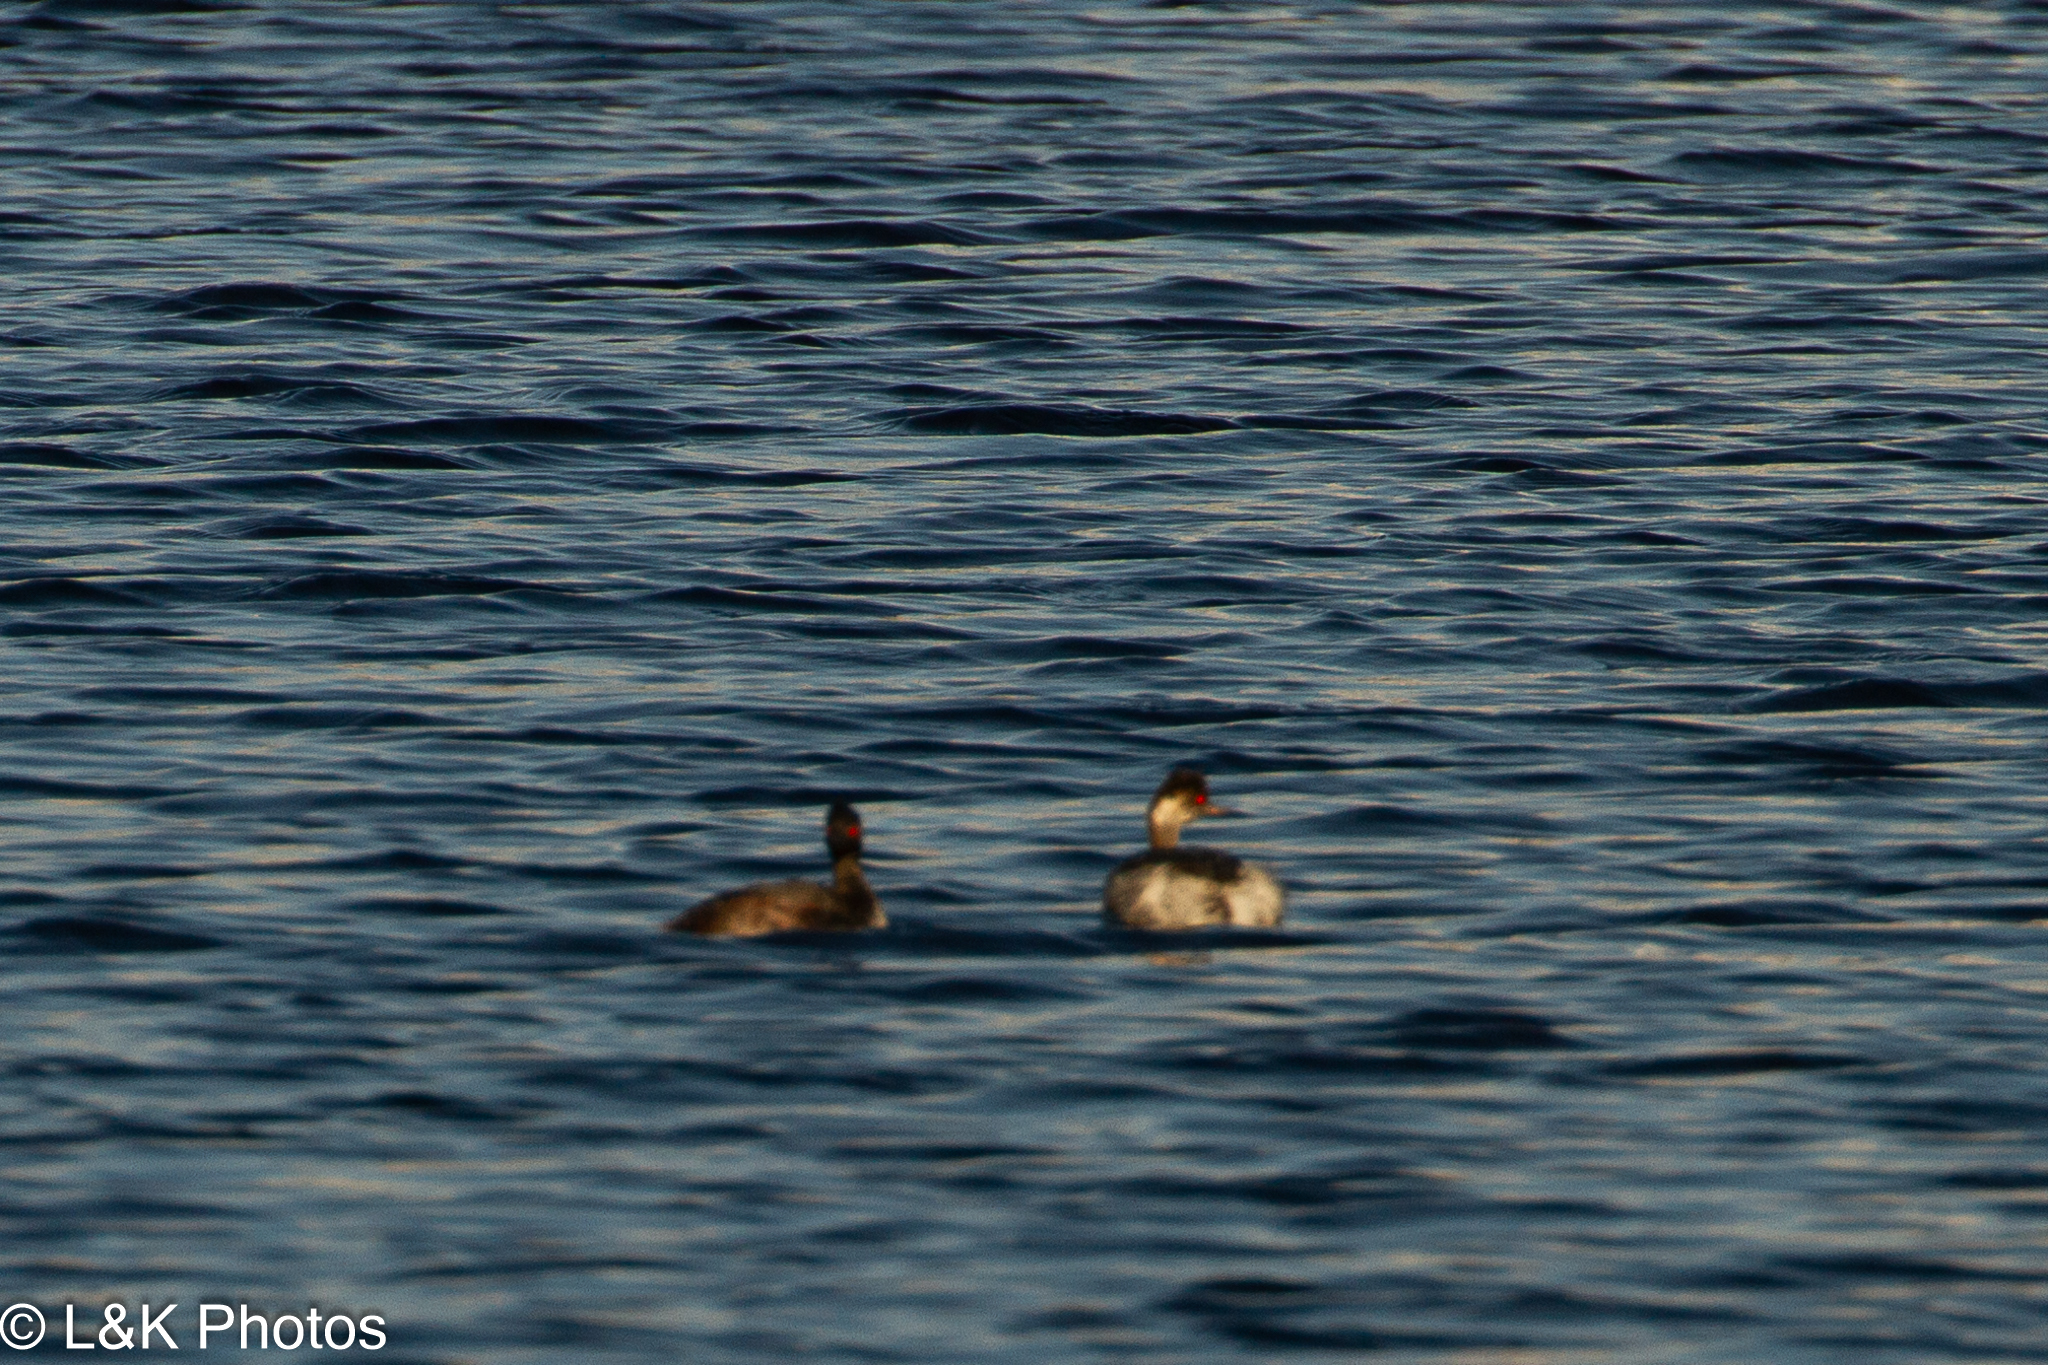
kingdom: Animalia
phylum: Chordata
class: Aves
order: Podicipediformes
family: Podicipedidae
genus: Podiceps
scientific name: Podiceps nigricollis
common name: Black-necked grebe
